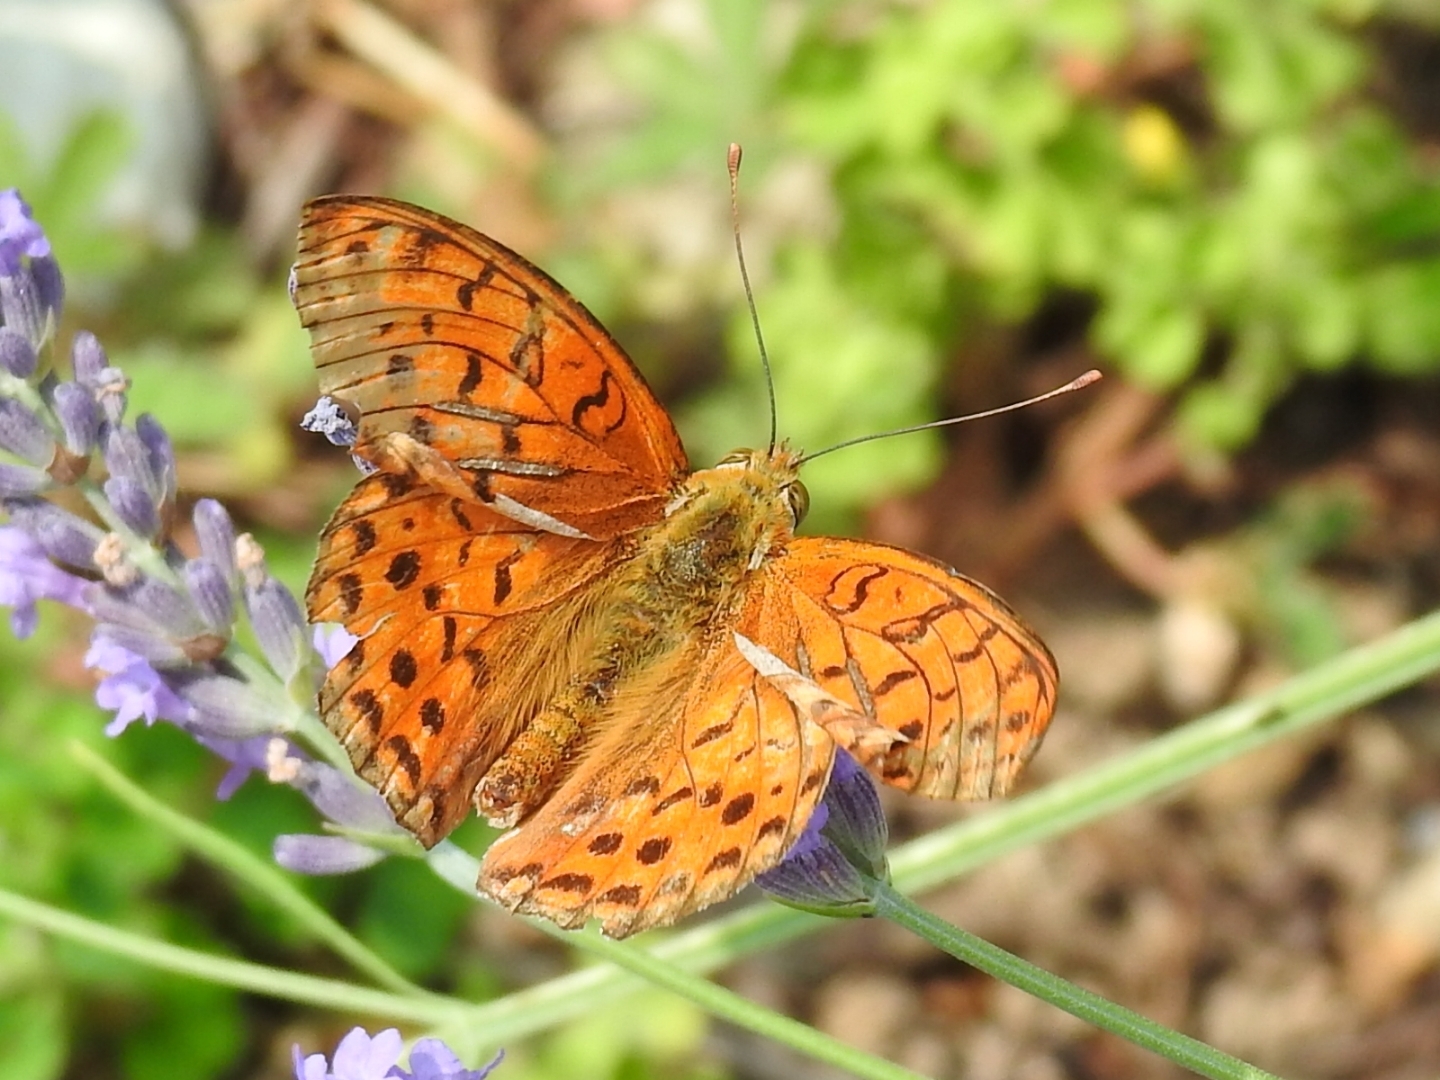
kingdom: Animalia
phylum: Arthropoda
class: Insecta
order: Lepidoptera
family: Nymphalidae
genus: Fabriciana
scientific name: Fabriciana adippe
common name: High brown fritillary
